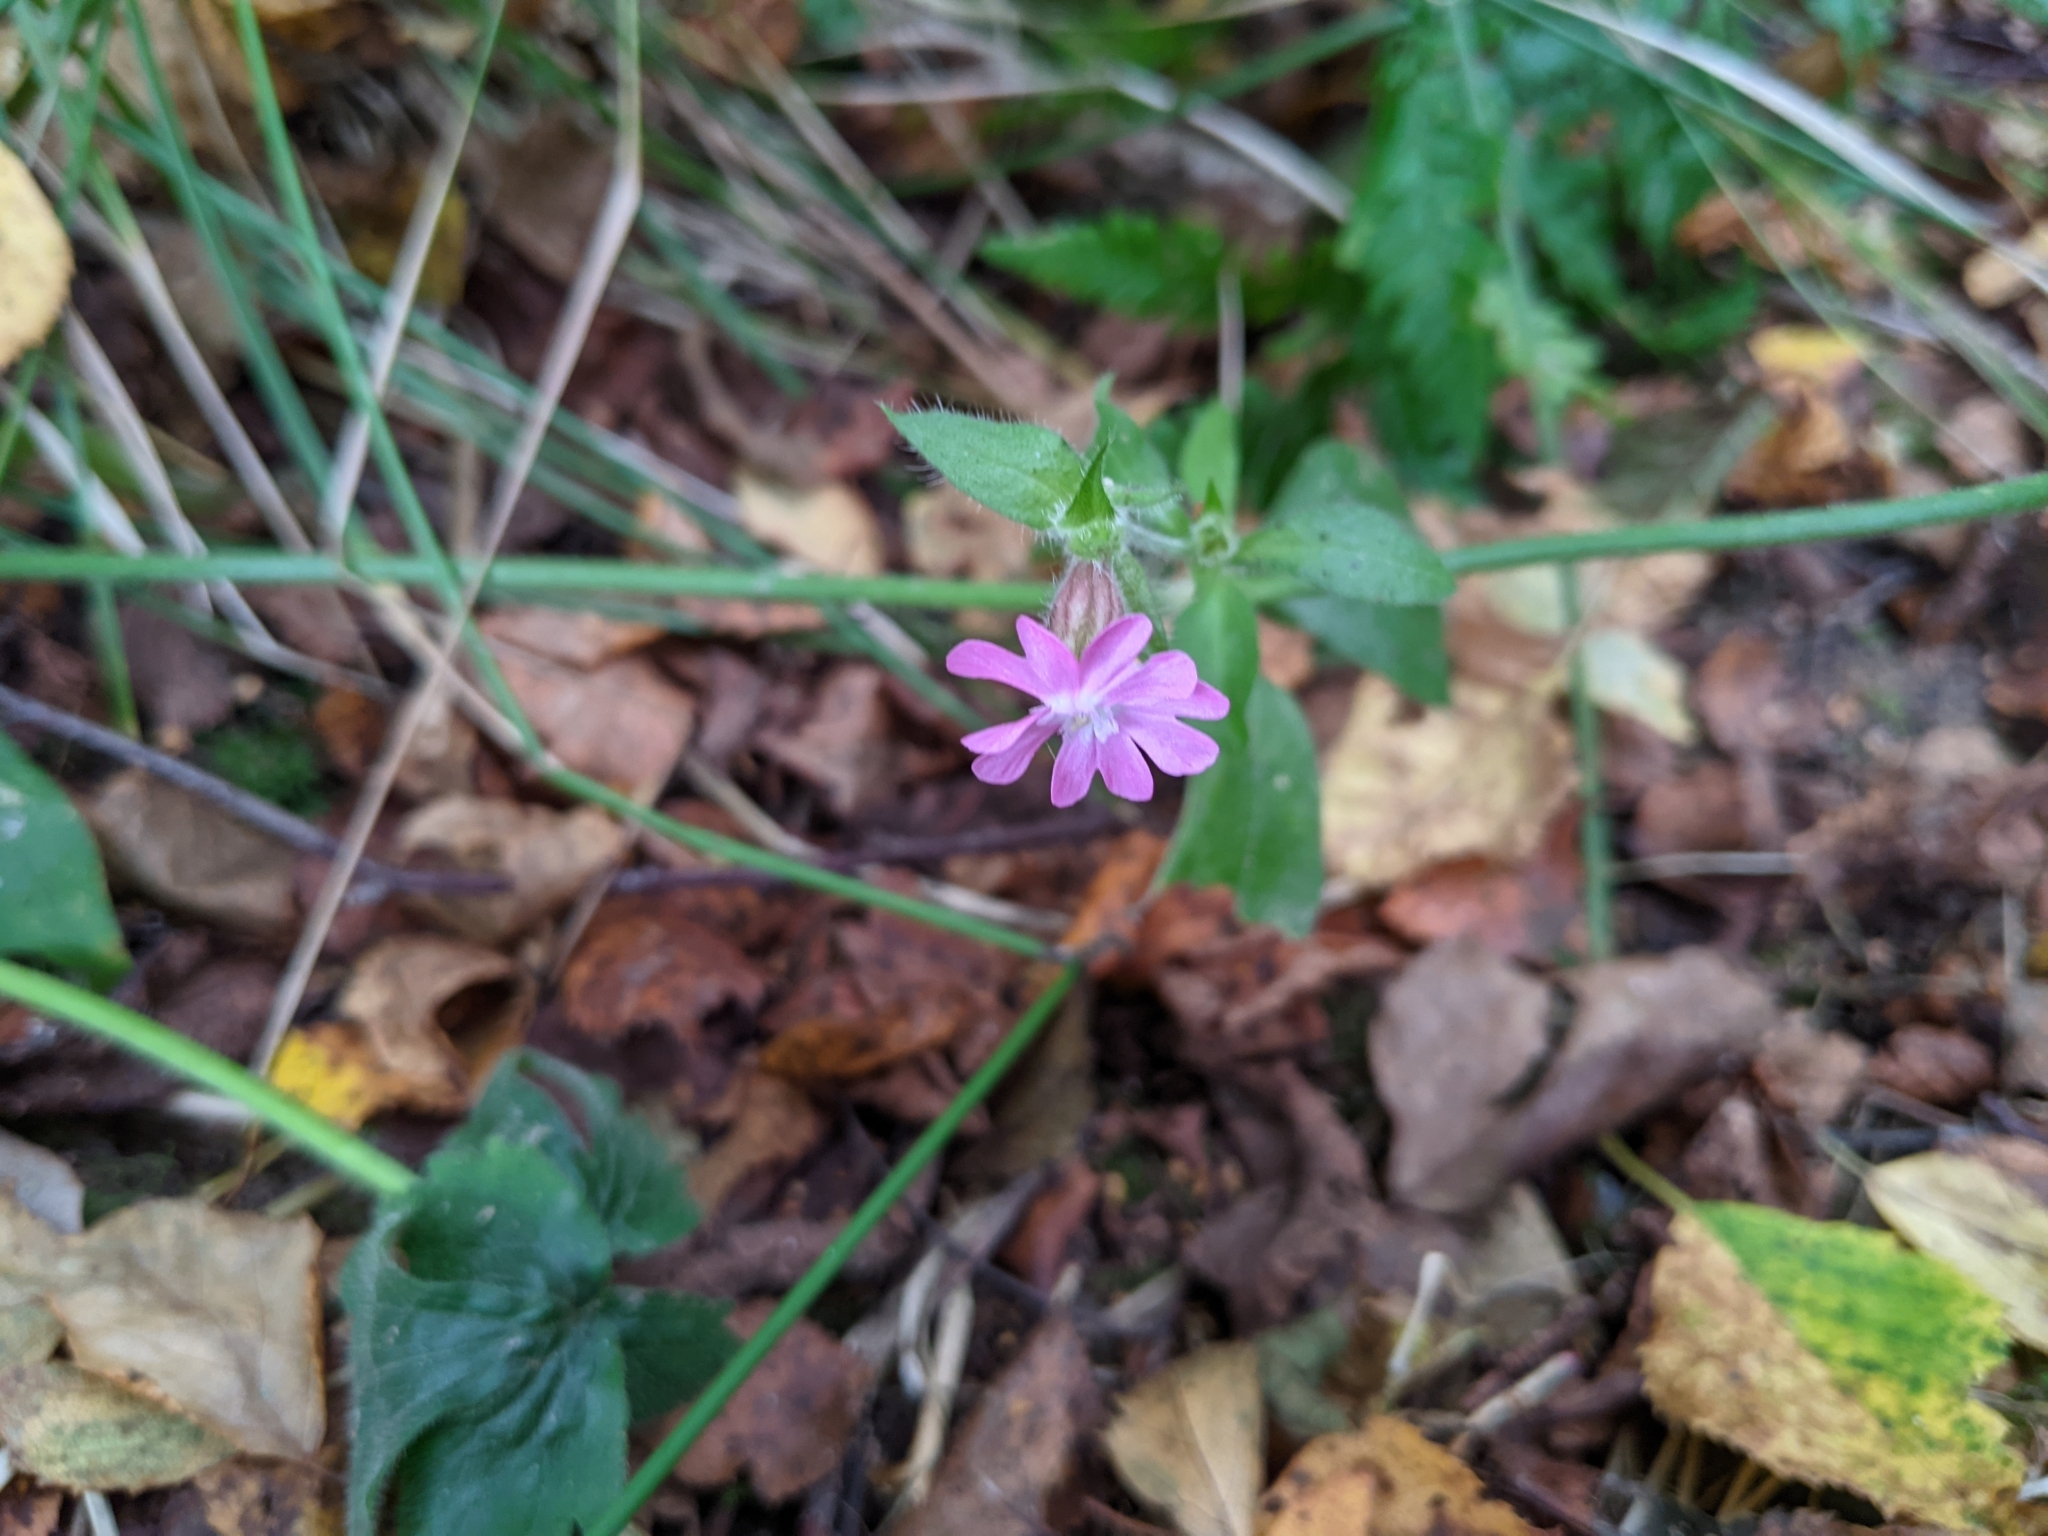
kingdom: Plantae
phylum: Tracheophyta
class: Magnoliopsida
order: Caryophyllales
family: Caryophyllaceae
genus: Silene
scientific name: Silene dioica
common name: Red campion
